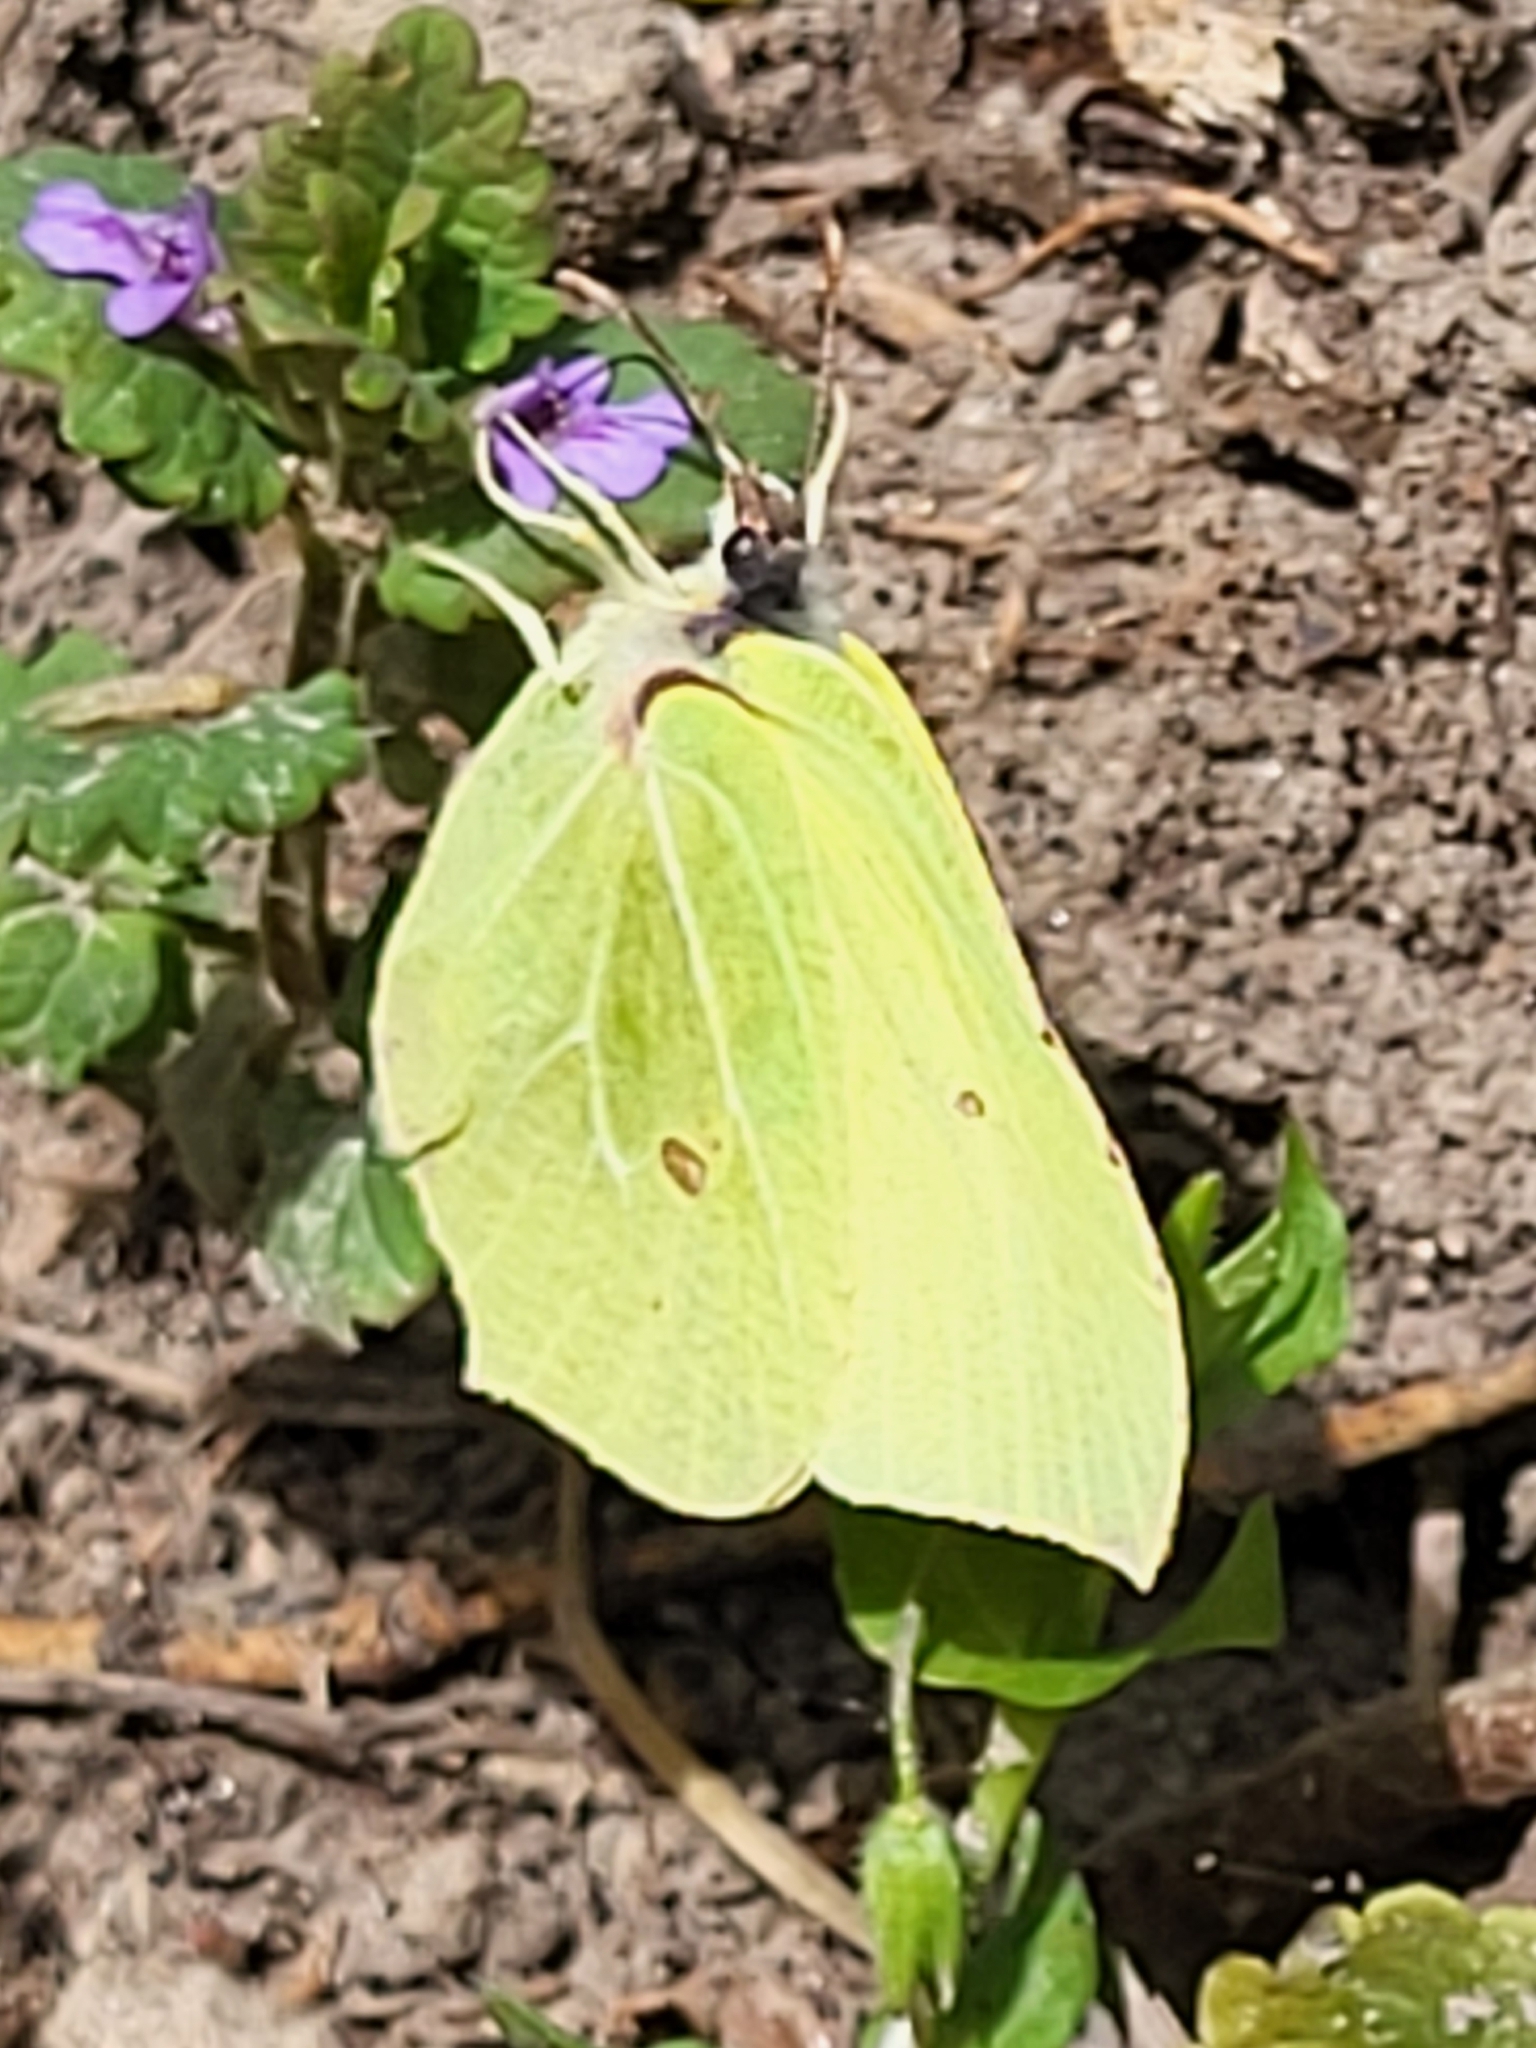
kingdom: Animalia
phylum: Arthropoda
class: Insecta
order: Lepidoptera
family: Pieridae
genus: Gonepteryx
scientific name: Gonepteryx rhamni
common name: Brimstone
